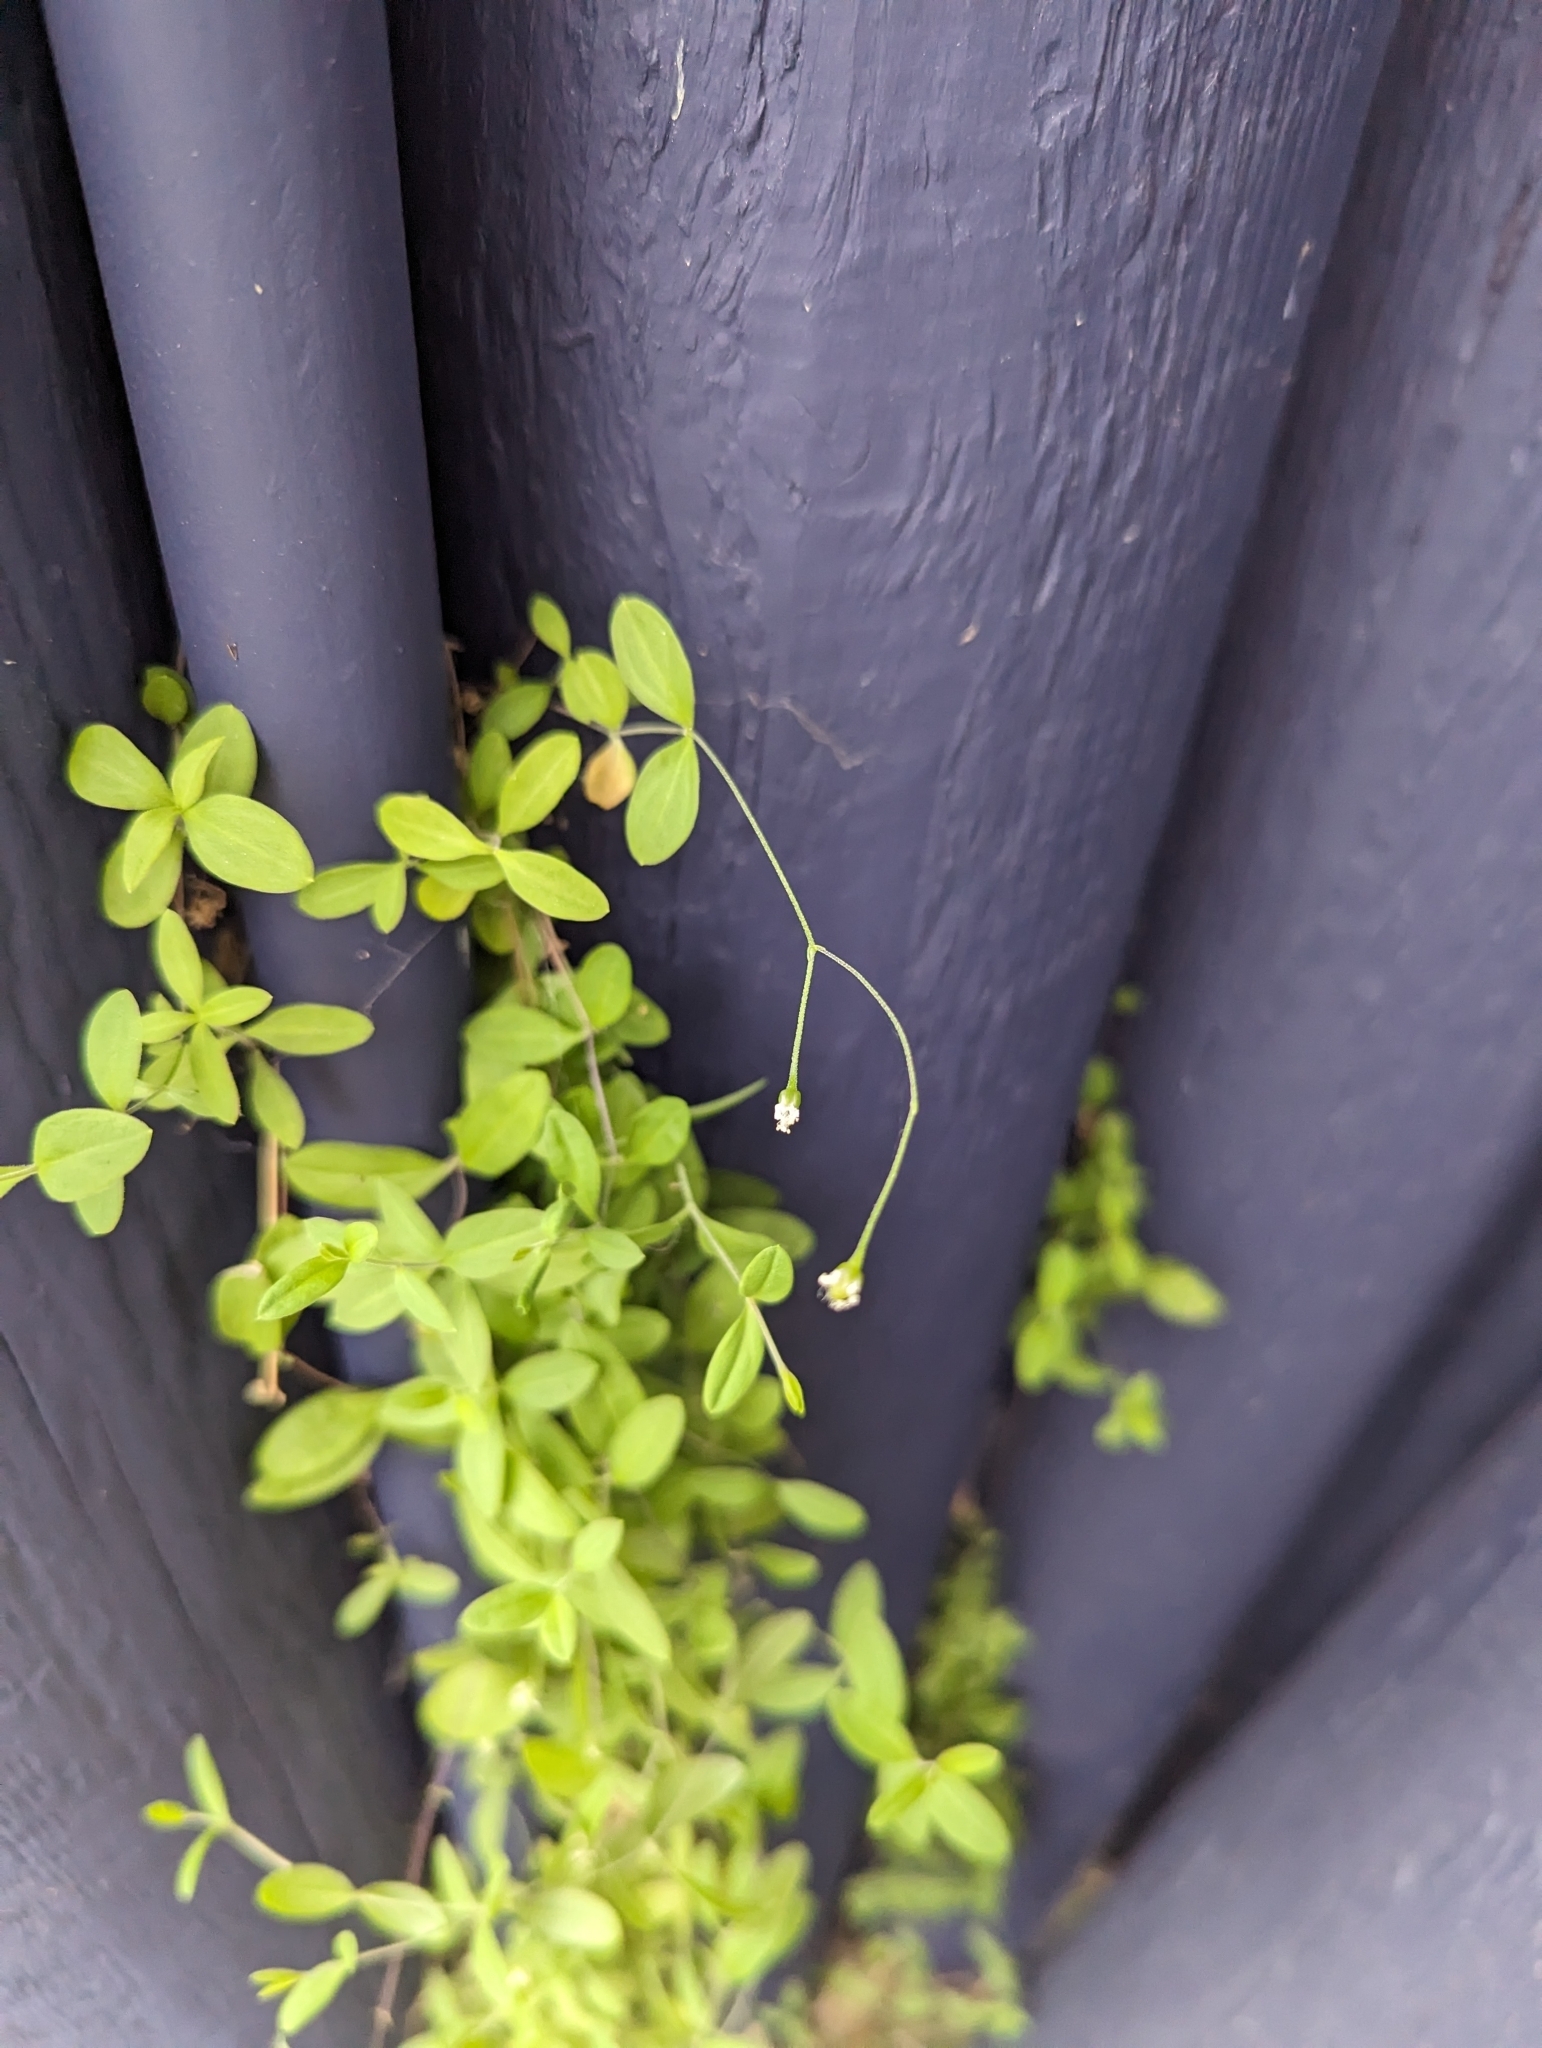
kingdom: Plantae
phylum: Tracheophyta
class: Magnoliopsida
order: Caryophyllales
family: Caryophyllaceae
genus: Moehringia
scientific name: Moehringia lateriflora
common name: Blunt-leaved sandwort
